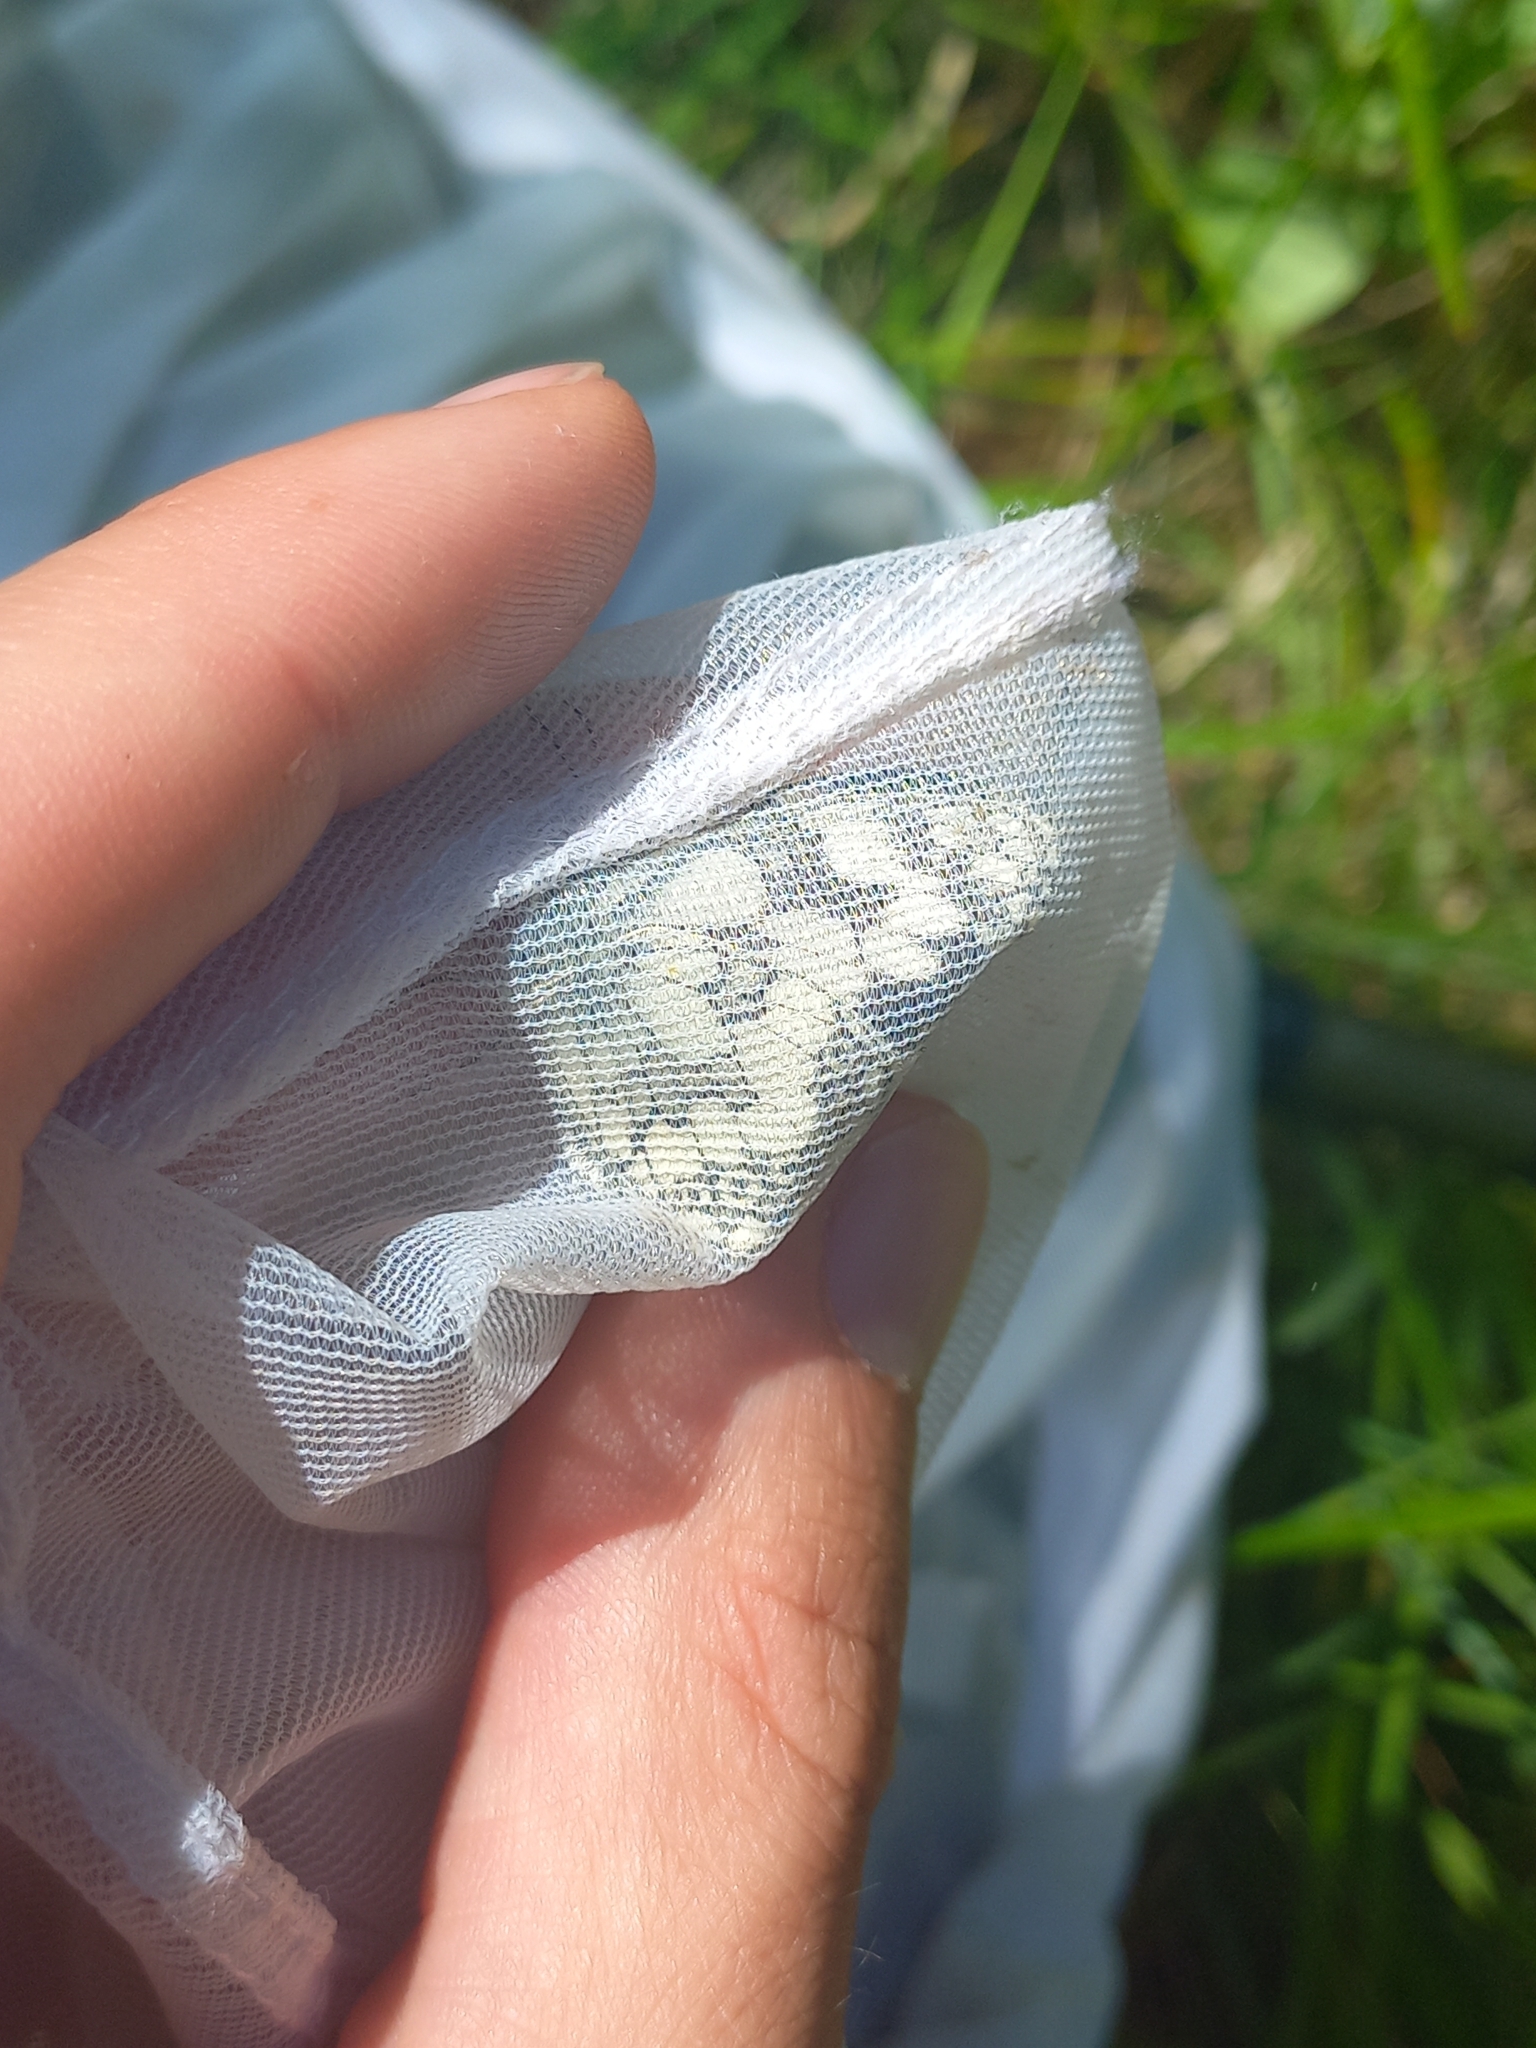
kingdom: Animalia
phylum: Arthropoda
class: Insecta
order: Lepidoptera
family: Nymphalidae
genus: Melanargia
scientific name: Melanargia galathea
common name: Marbled white
